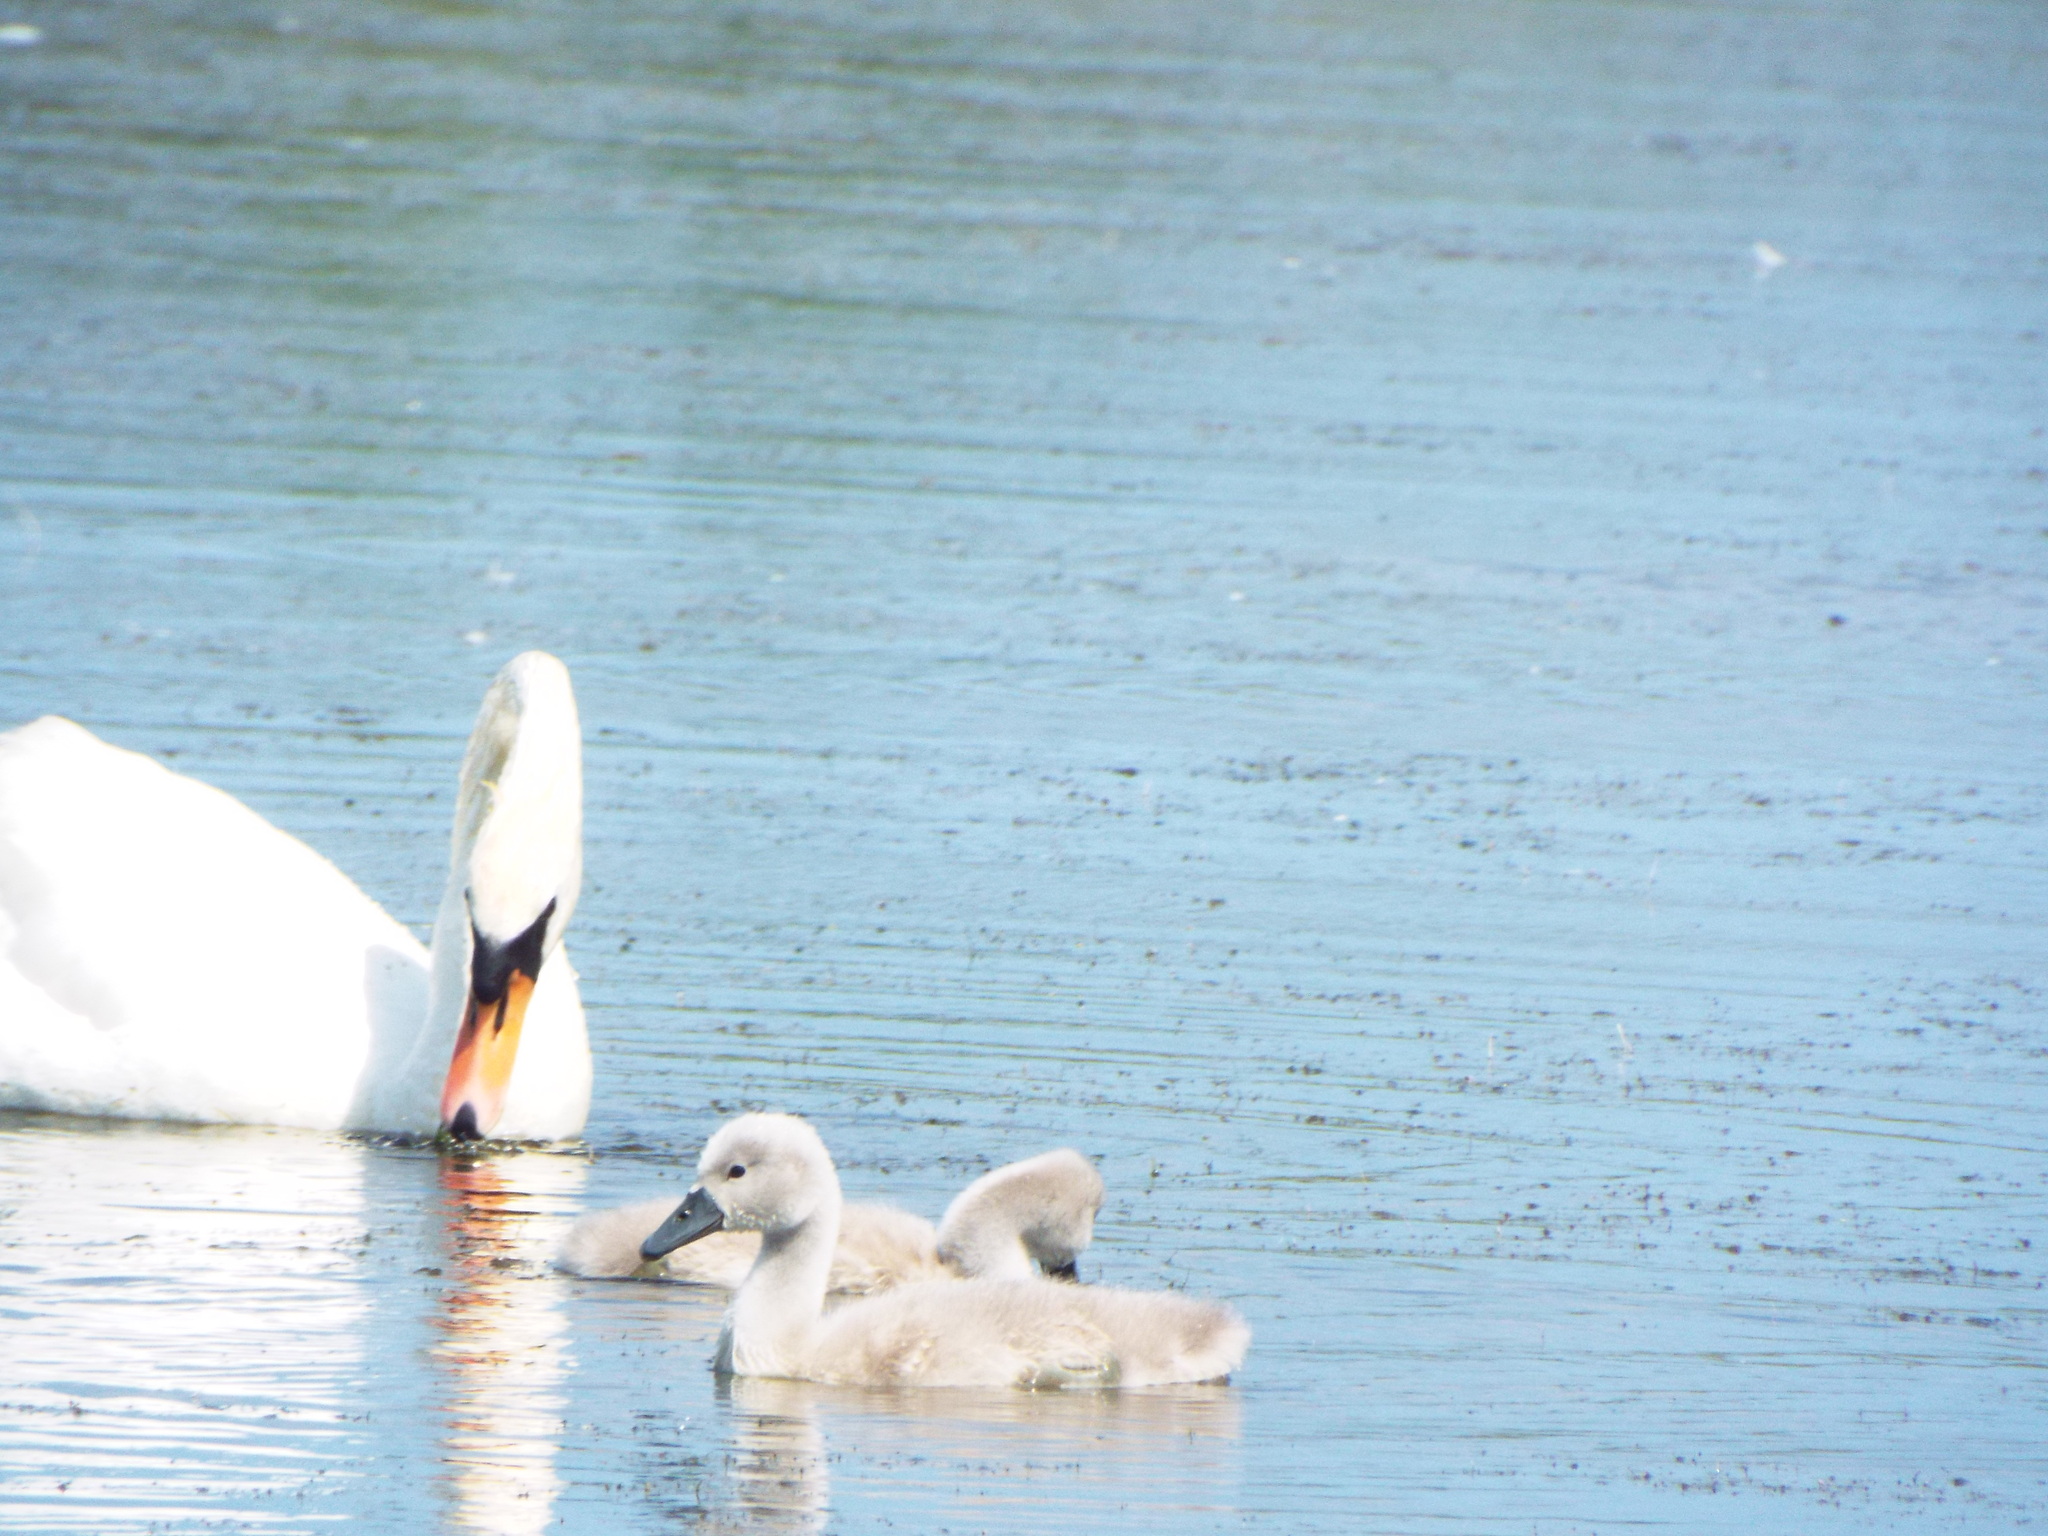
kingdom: Animalia
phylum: Chordata
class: Aves
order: Anseriformes
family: Anatidae
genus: Cygnus
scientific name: Cygnus olor
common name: Mute swan
